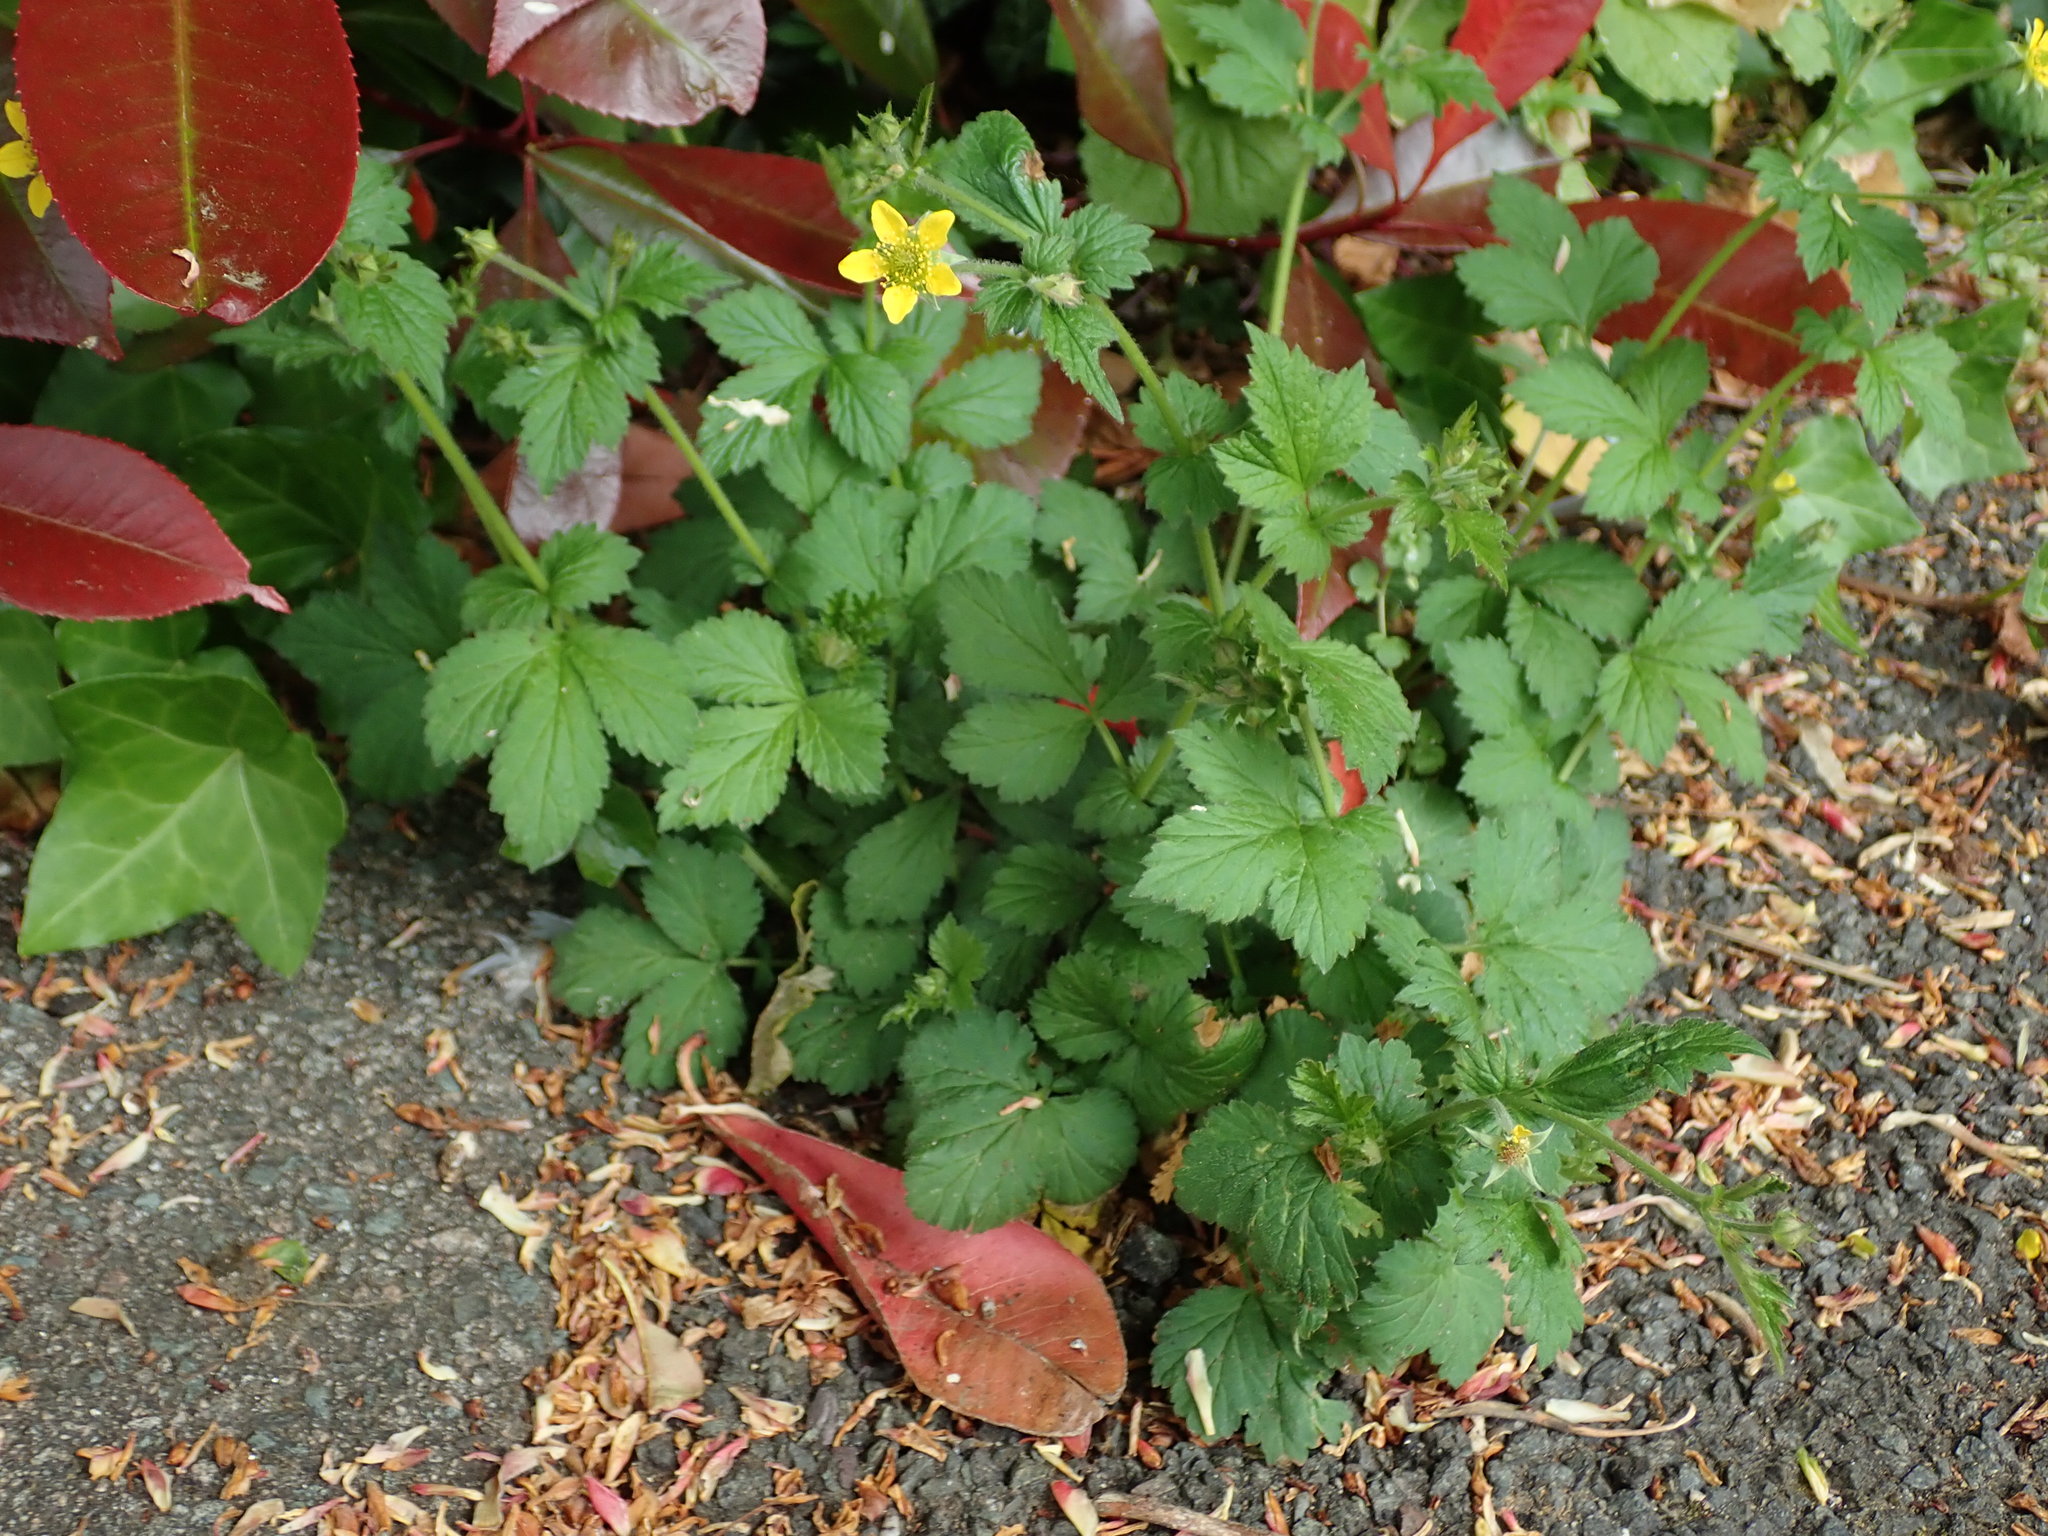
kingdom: Plantae
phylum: Tracheophyta
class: Magnoliopsida
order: Rosales
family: Rosaceae
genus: Geum
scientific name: Geum urbanum
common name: Wood avens
